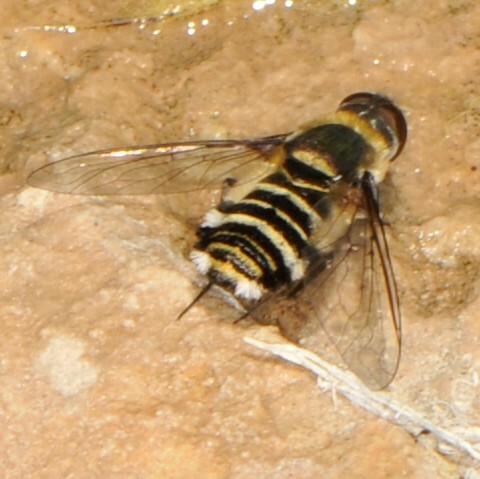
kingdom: Animalia
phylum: Arthropoda
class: Insecta
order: Diptera
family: Bombyliidae
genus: Villa
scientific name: Villa lateralis
